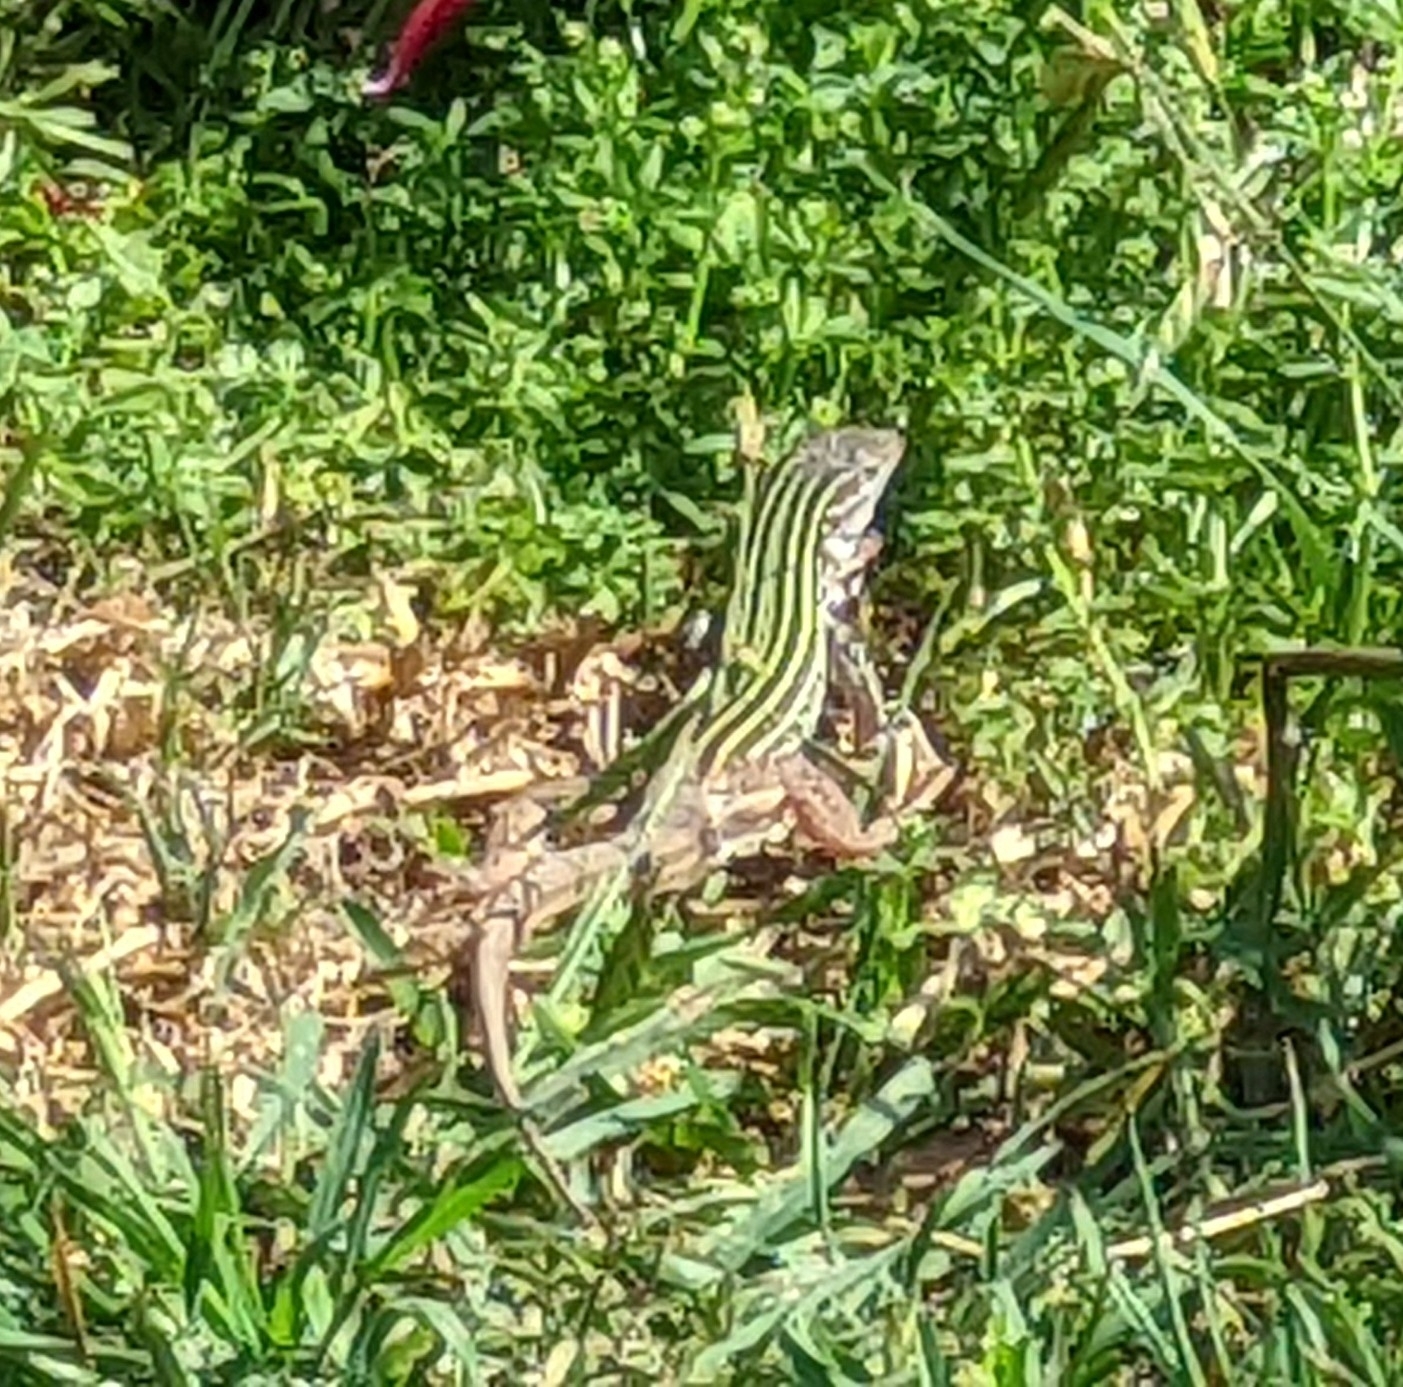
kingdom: Animalia
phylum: Chordata
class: Squamata
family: Teiidae
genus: Aspidoscelis
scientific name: Aspidoscelis gularis
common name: Eastern spotted whiptail
